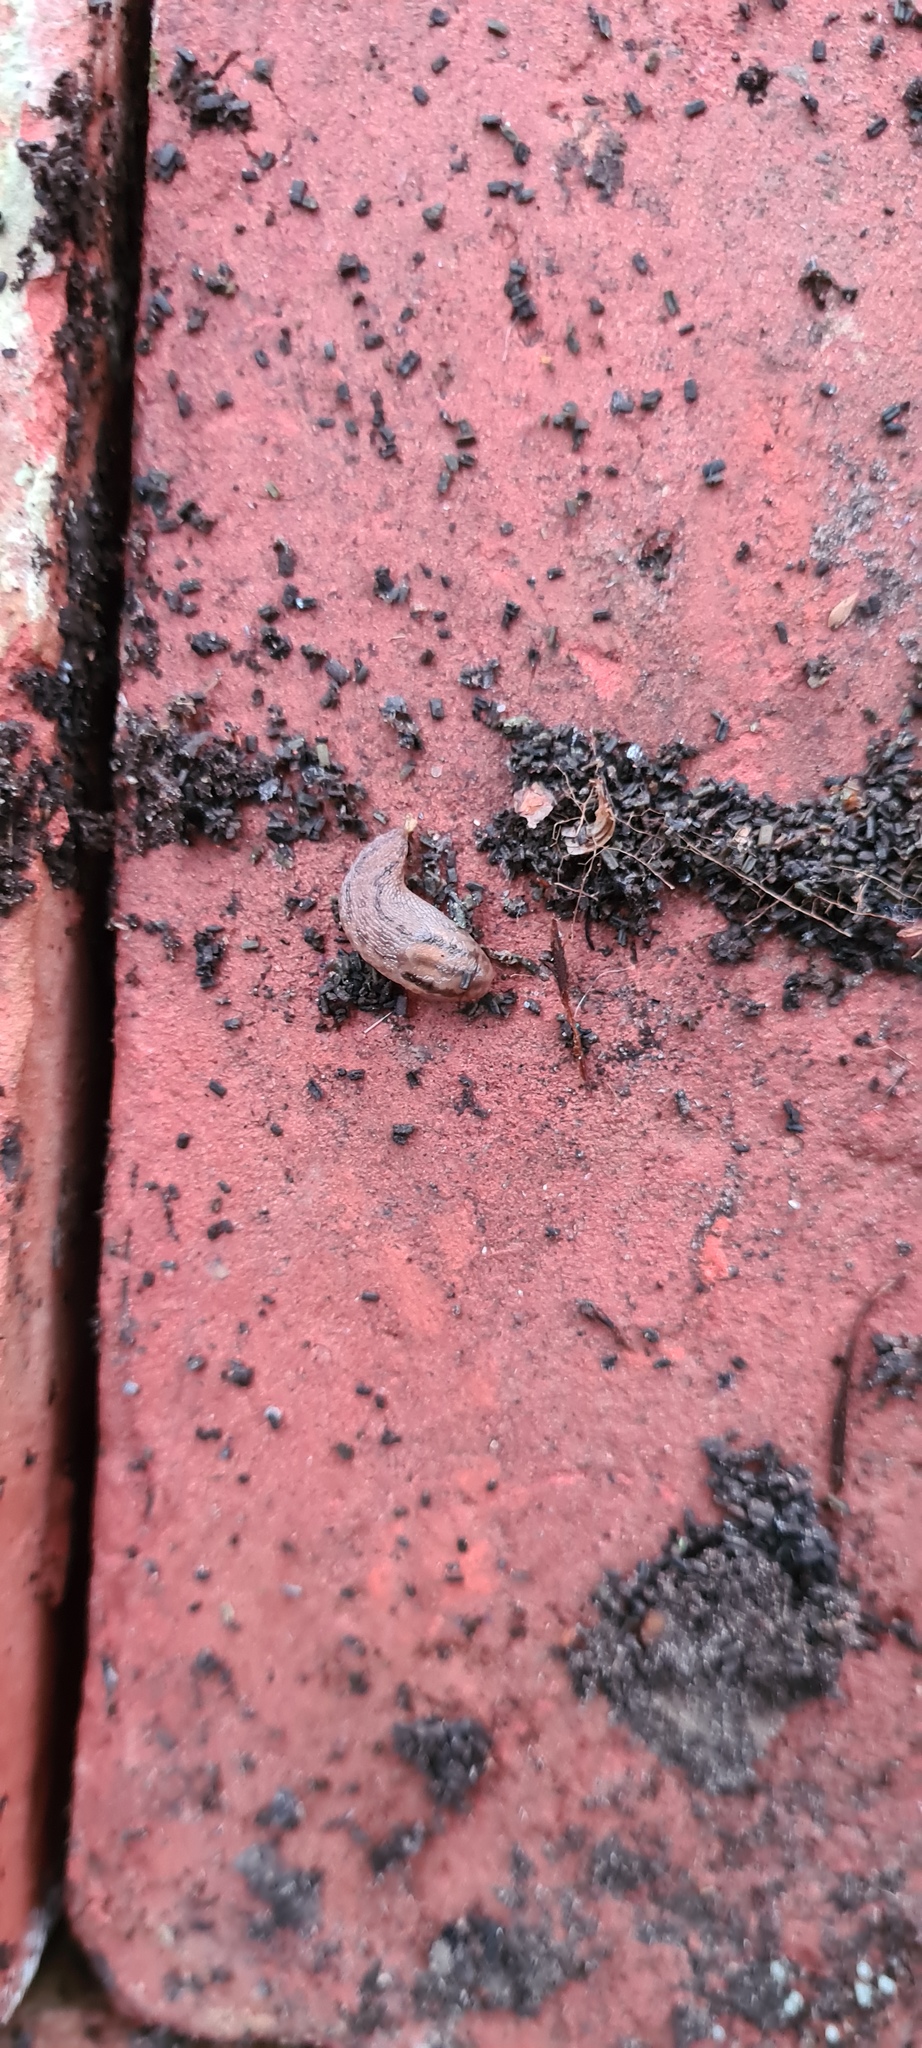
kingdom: Animalia
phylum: Mollusca
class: Gastropoda
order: Stylommatophora
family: Limacidae
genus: Ambigolimax
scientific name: Ambigolimax valentianus
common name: Greenhouse slug
